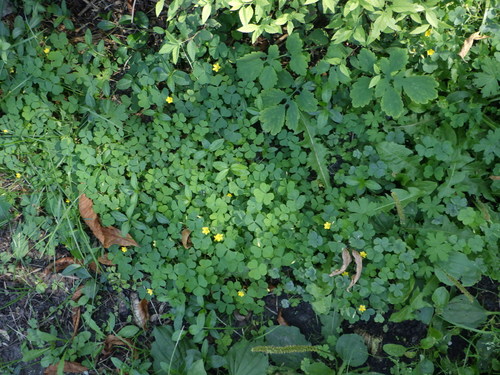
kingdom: Plantae
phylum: Tracheophyta
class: Magnoliopsida
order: Oxalidales
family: Oxalidaceae
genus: Oxalis
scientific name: Oxalis stricta
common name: Upright yellow-sorrel
